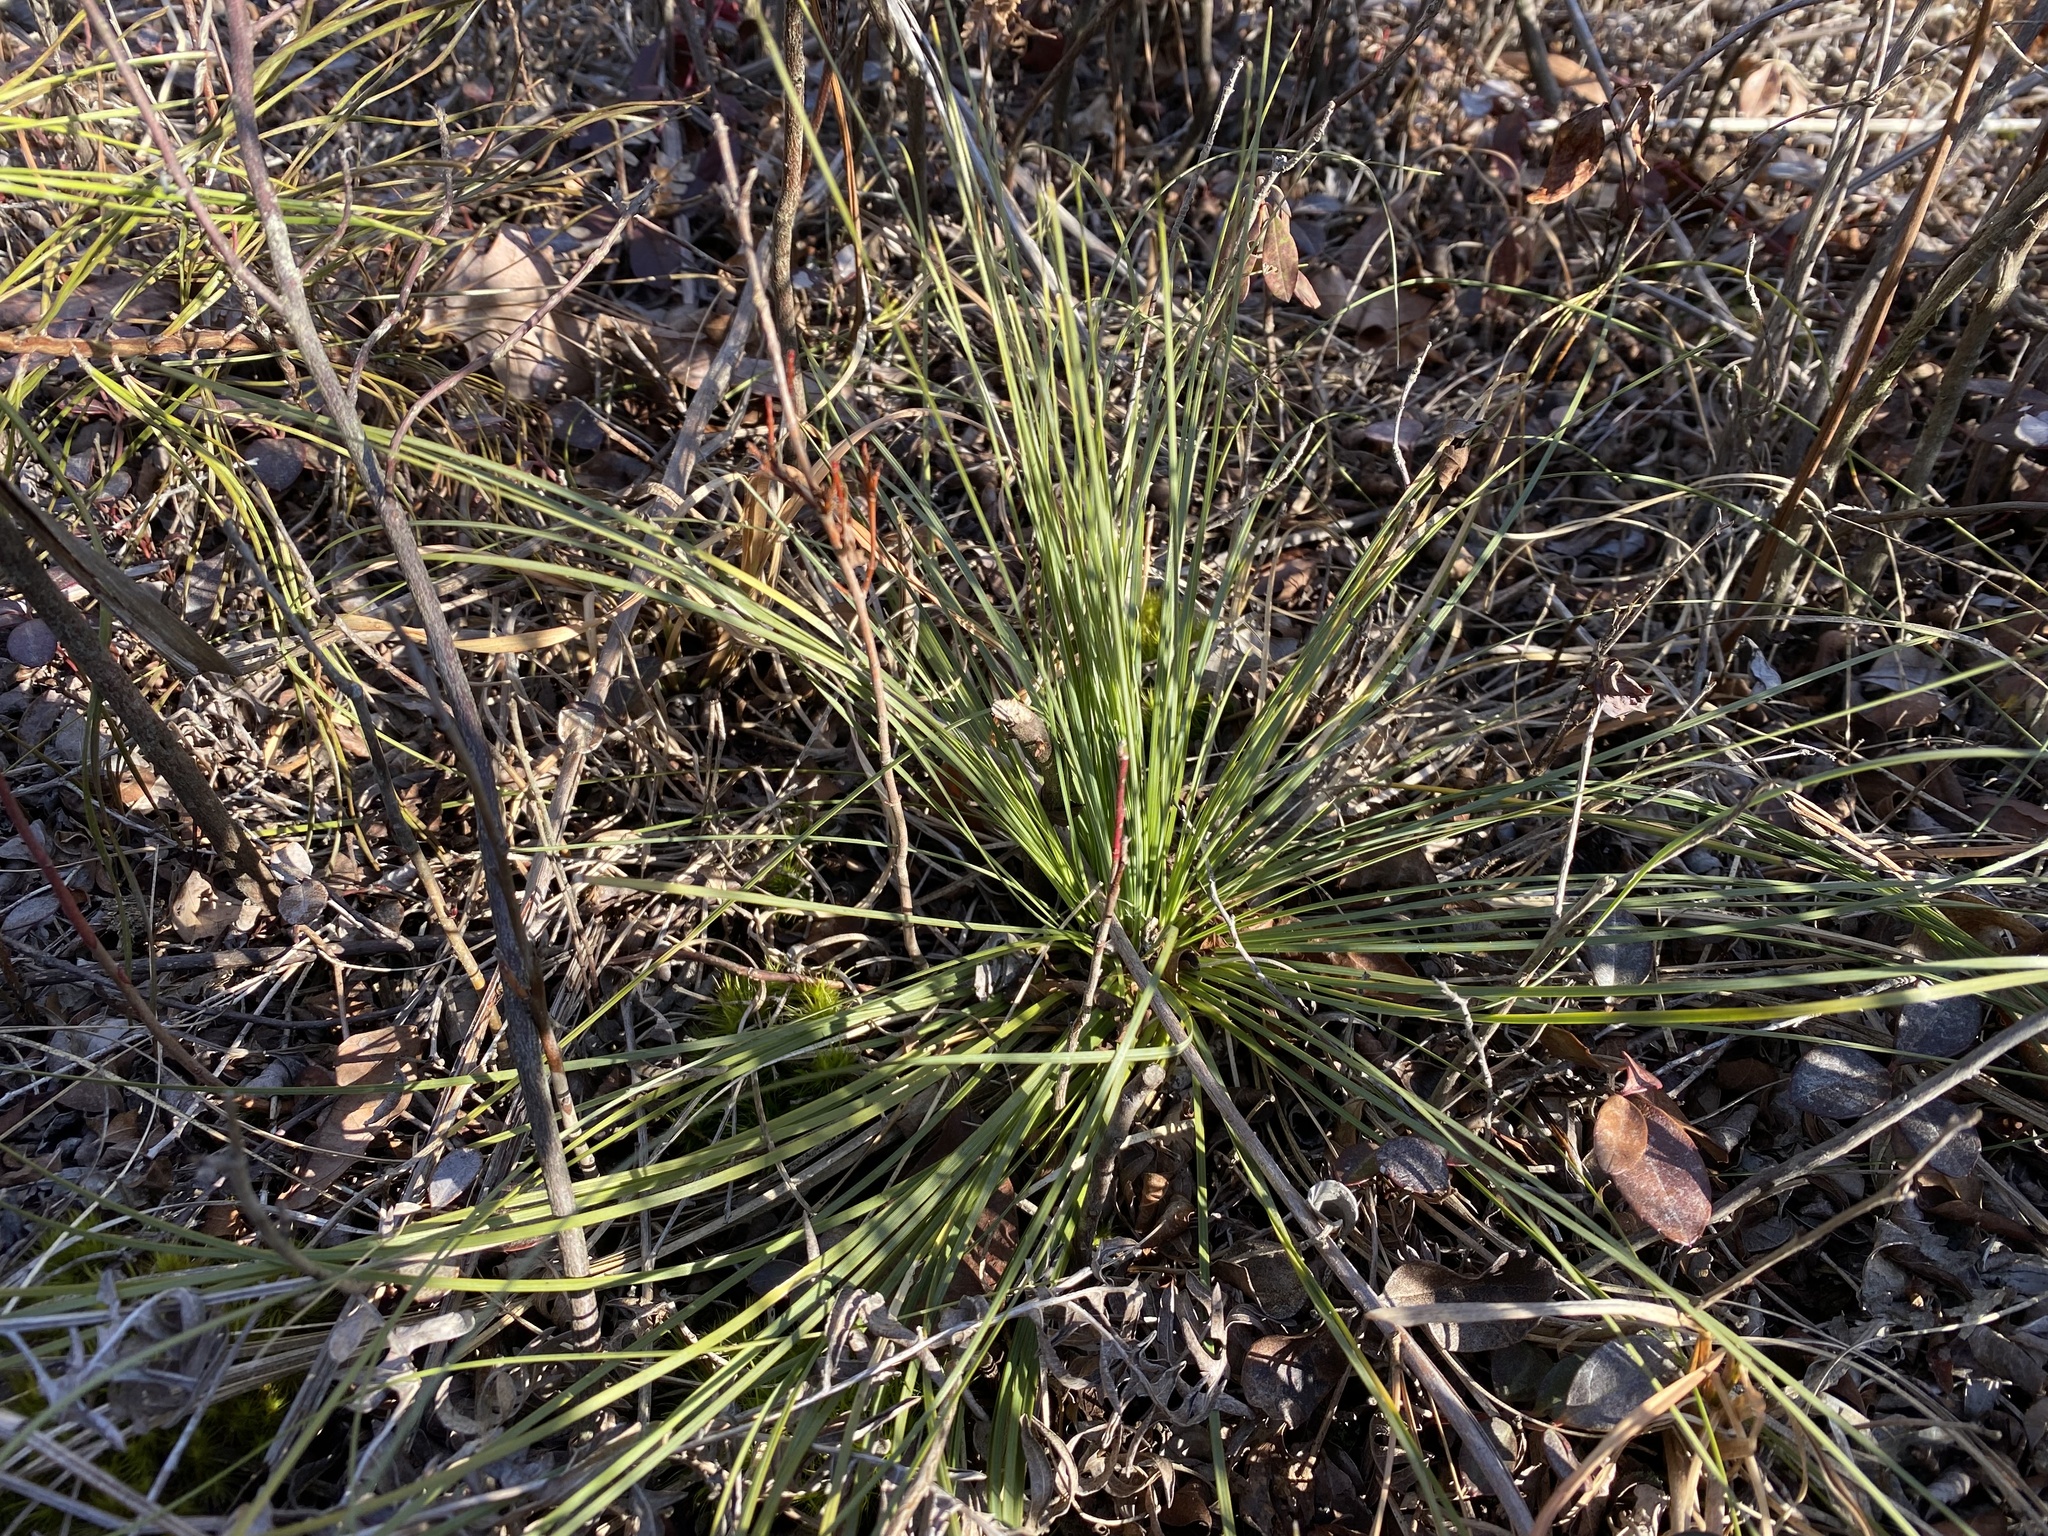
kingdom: Plantae
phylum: Tracheophyta
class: Liliopsida
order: Liliales
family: Melanthiaceae
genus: Xerophyllum
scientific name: Xerophyllum asphodeloides
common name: Mountain-asphodel
